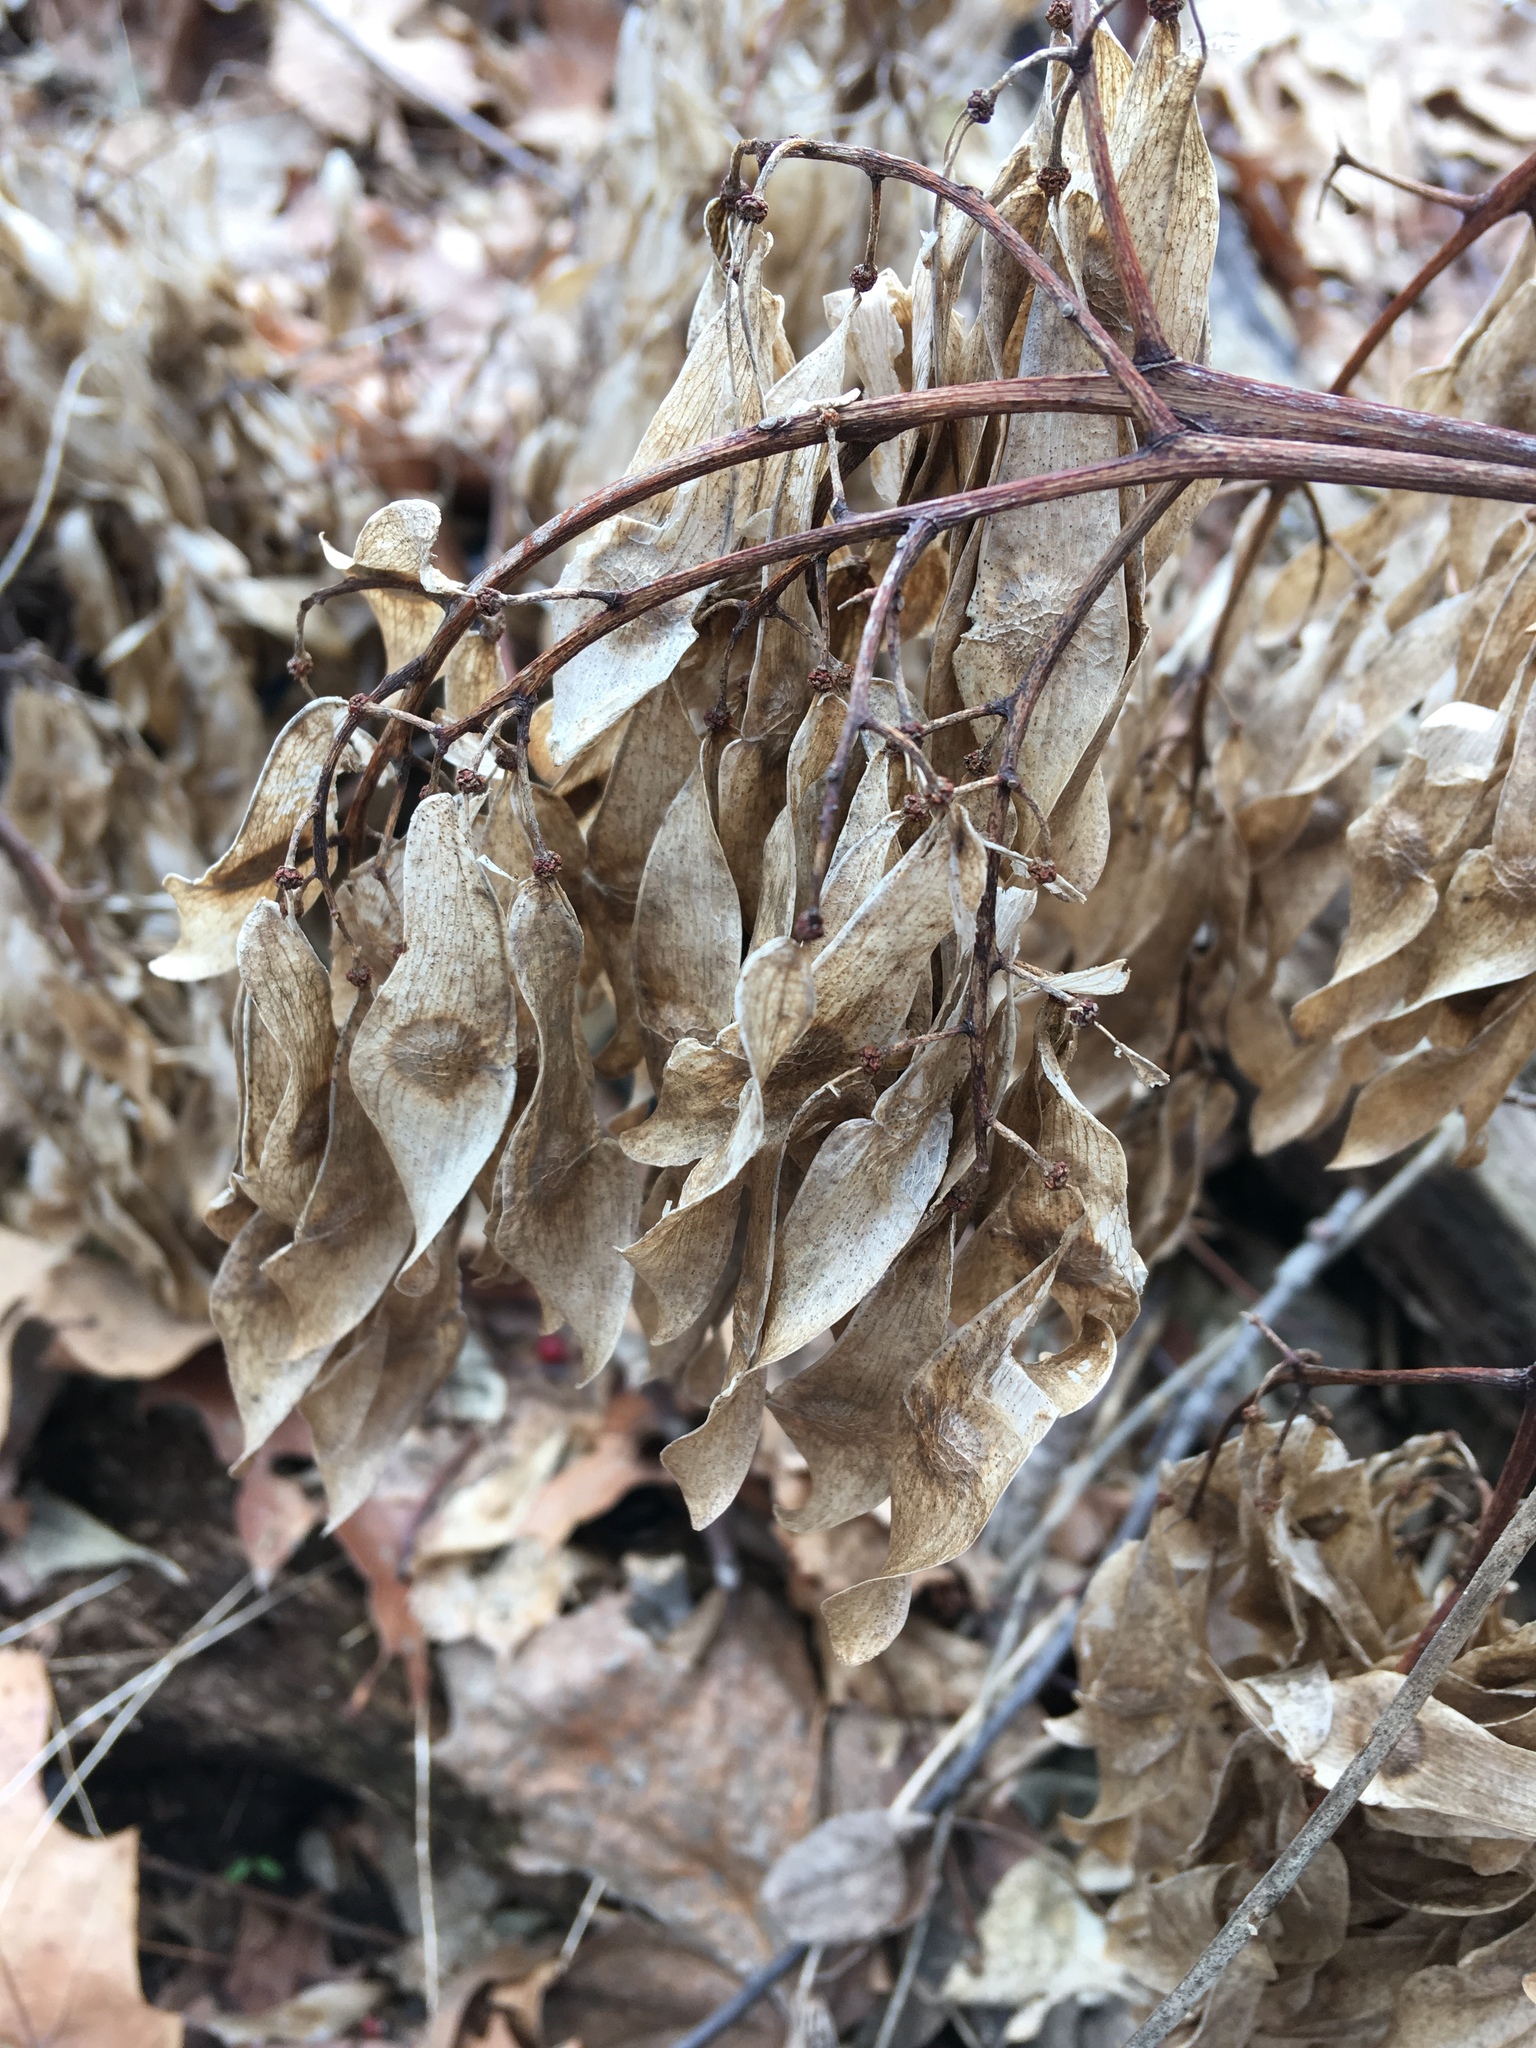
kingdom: Plantae
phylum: Tracheophyta
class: Magnoliopsida
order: Sapindales
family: Simaroubaceae
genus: Ailanthus
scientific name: Ailanthus altissima
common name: Tree-of-heaven
